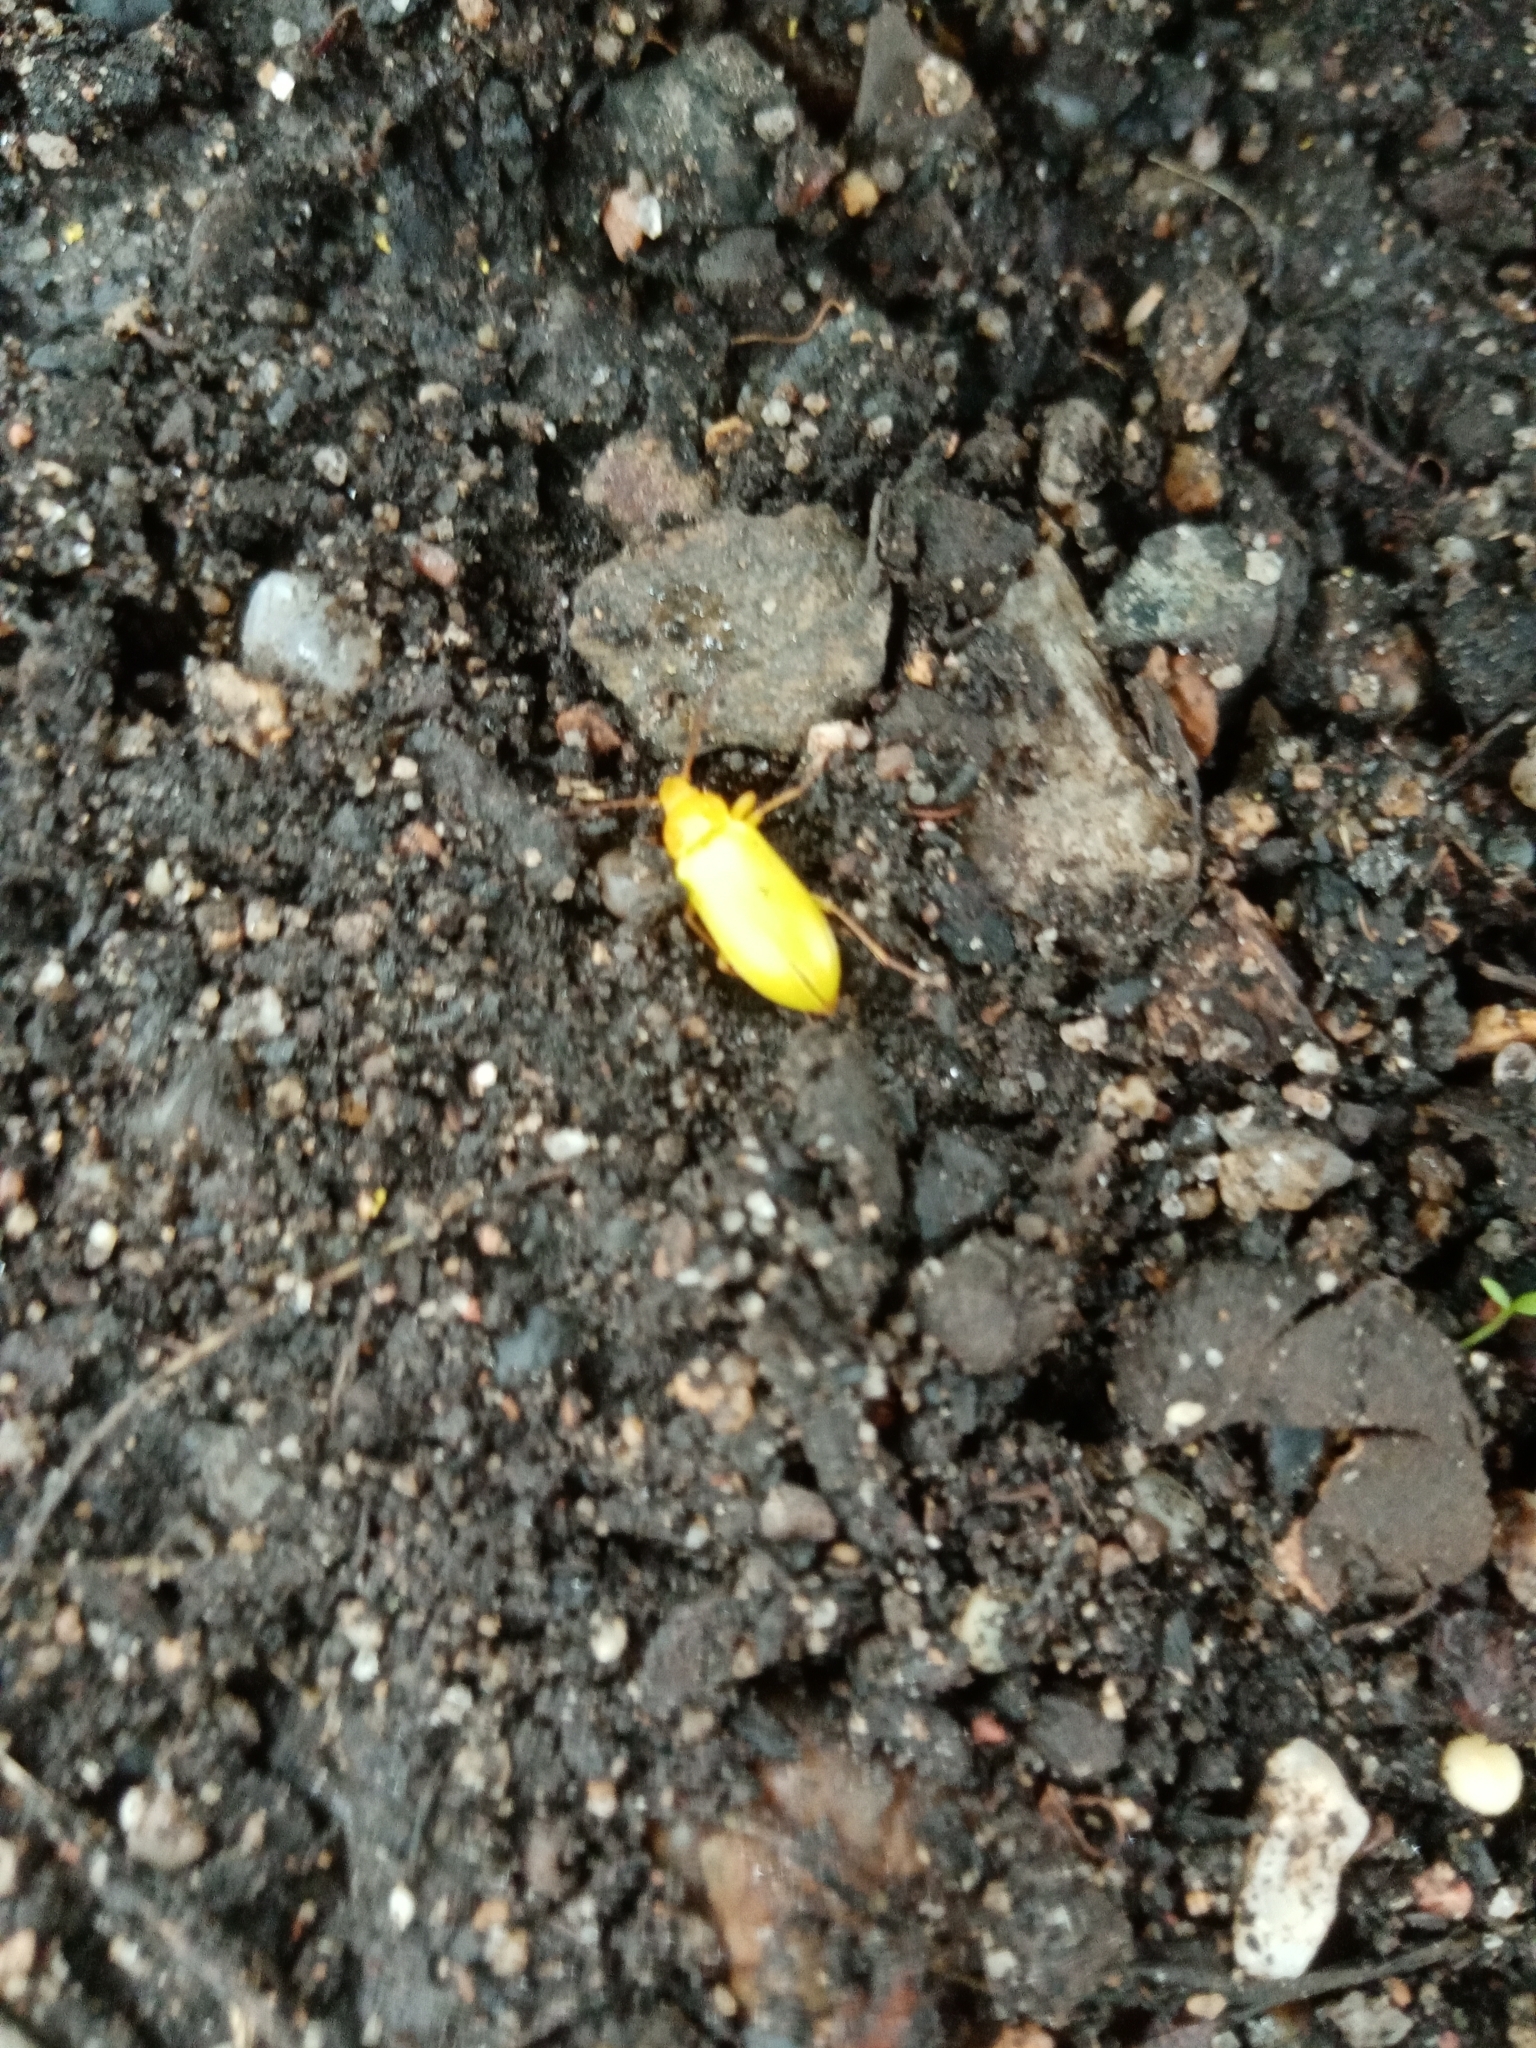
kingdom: Animalia
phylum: Arthropoda
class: Insecta
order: Coleoptera
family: Tenebrionidae
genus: Cteniopus
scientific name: Cteniopus sulphureus
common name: Sulphur beetle
